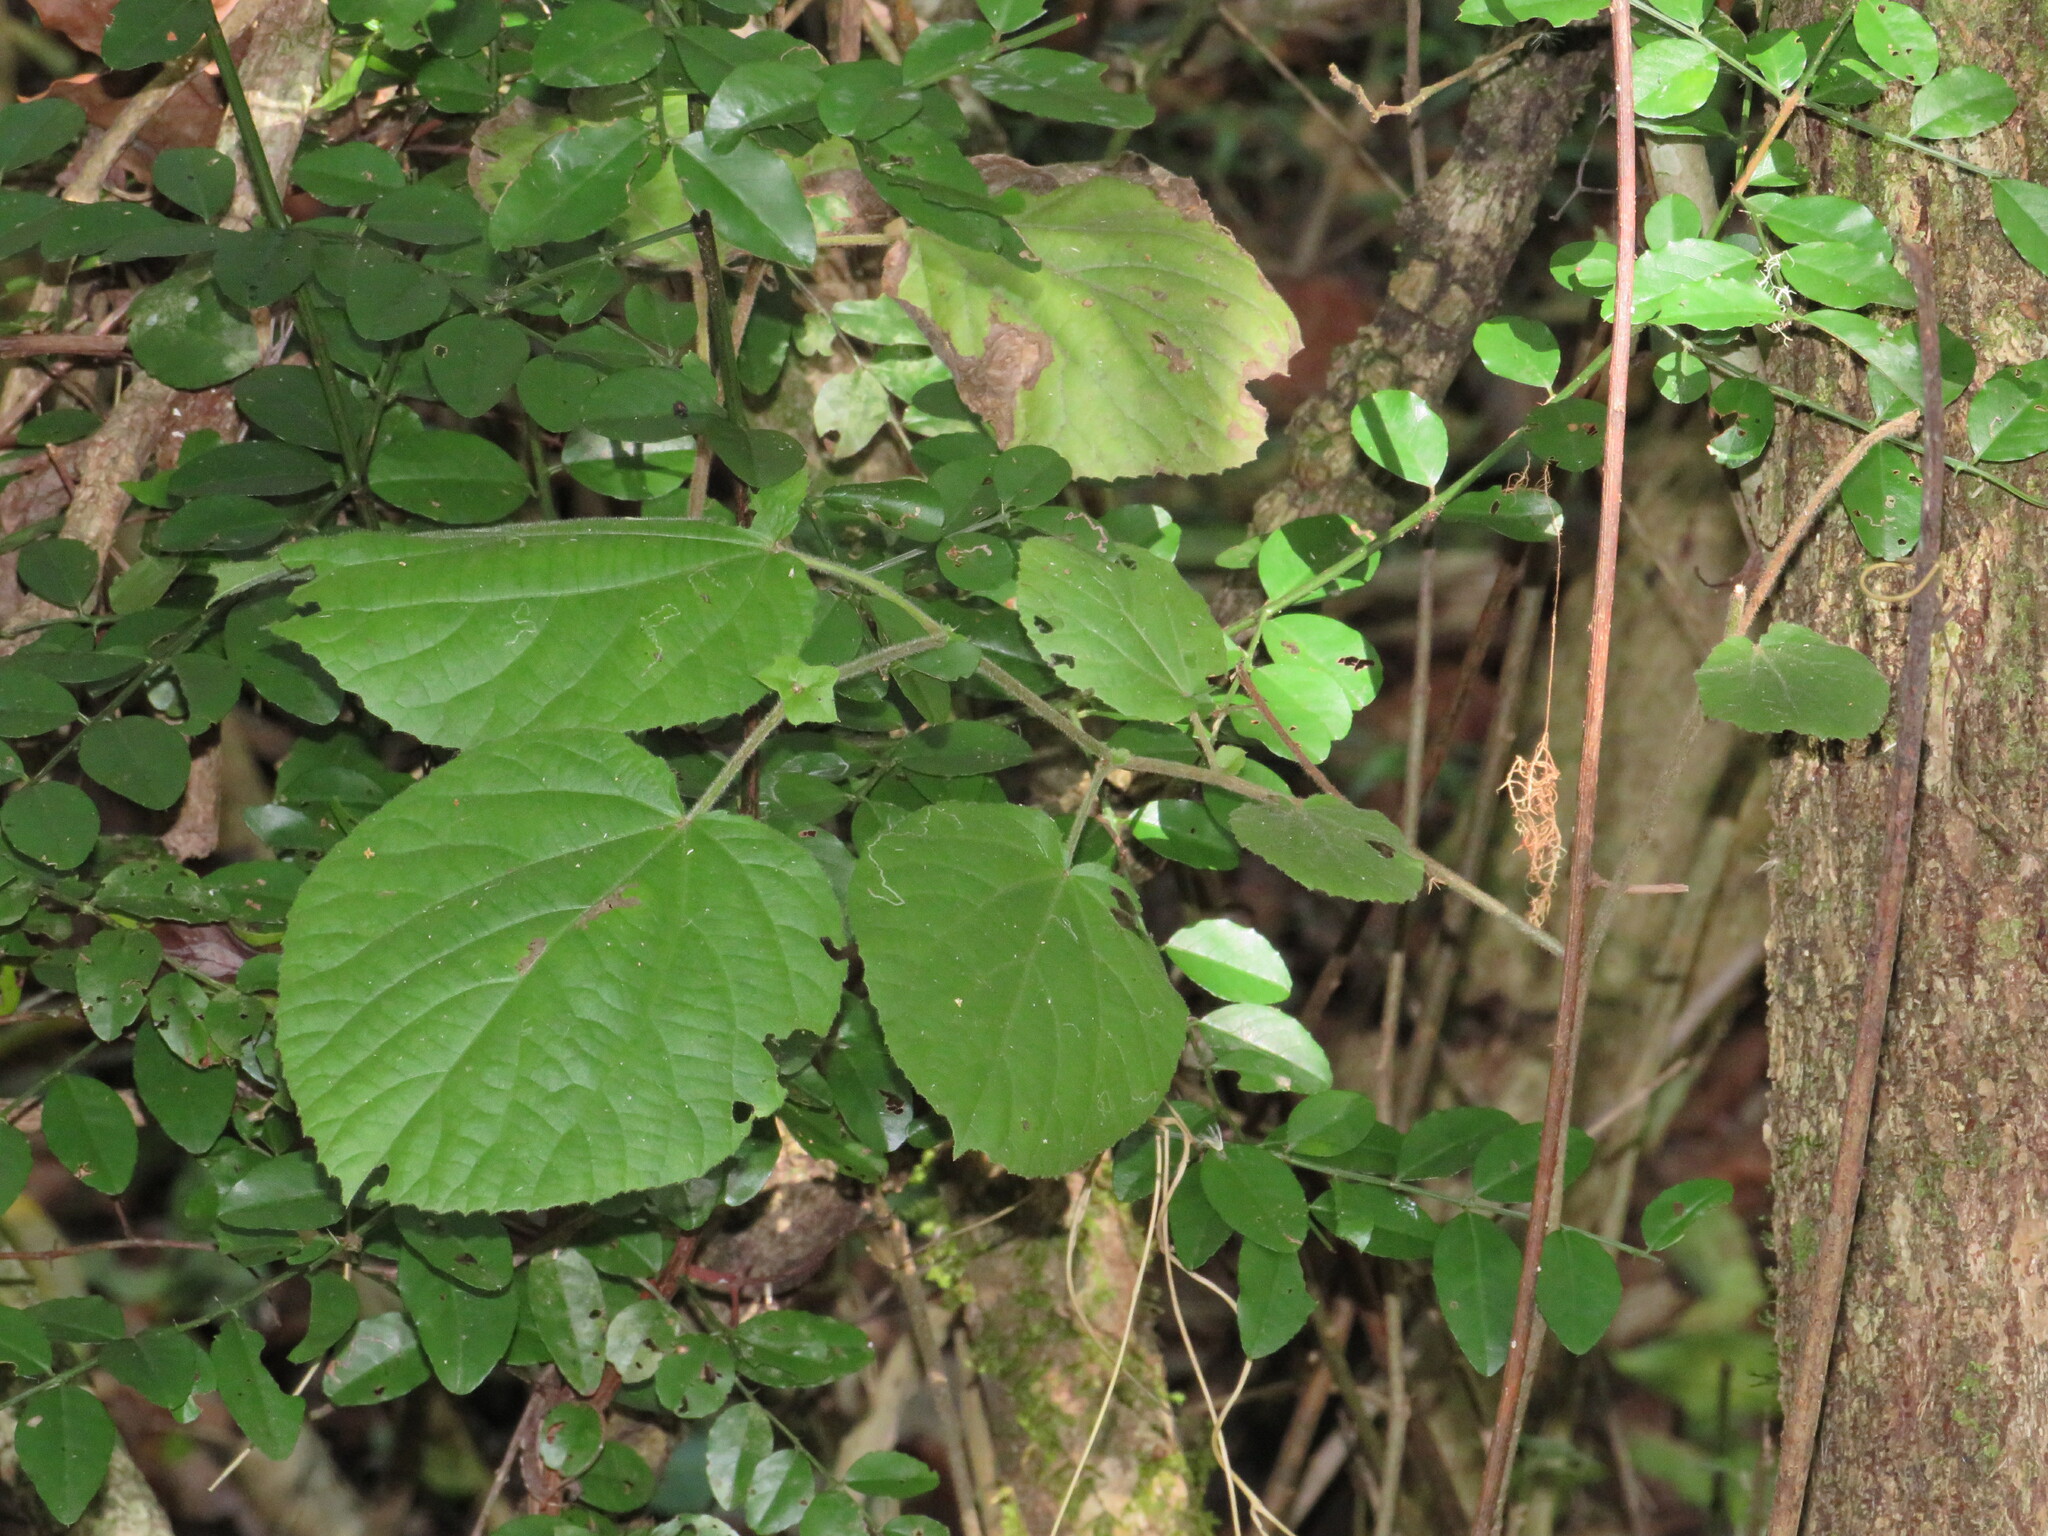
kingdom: Plantae
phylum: Tracheophyta
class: Magnoliopsida
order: Malpighiales
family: Salicaceae
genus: Trimeria
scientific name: Trimeria grandifolia
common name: Wild mulberry
